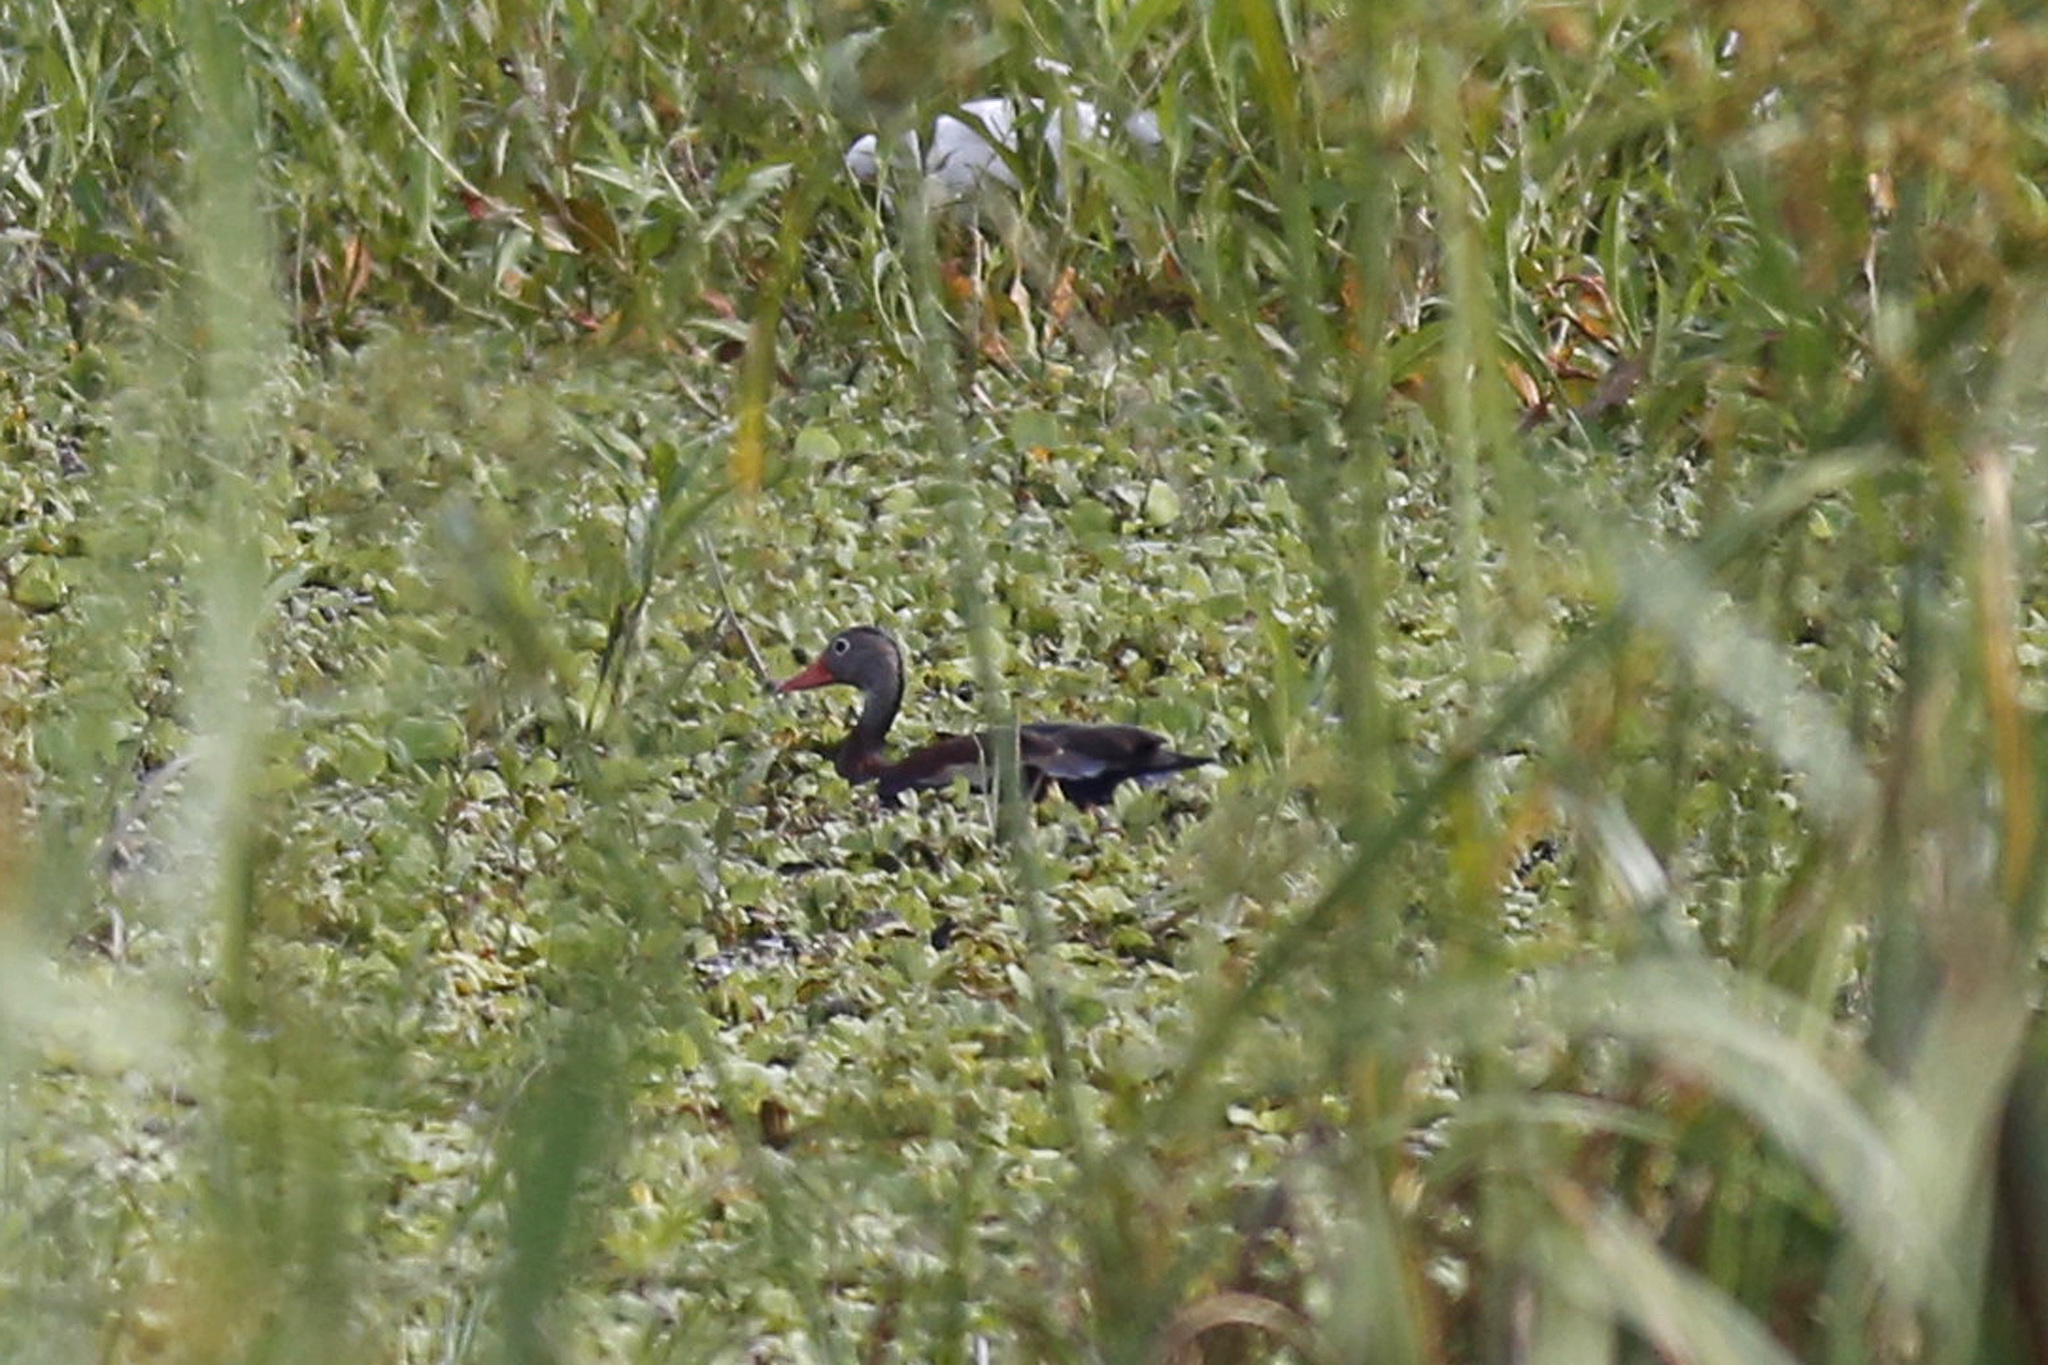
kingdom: Animalia
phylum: Chordata
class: Aves
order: Anseriformes
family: Anatidae
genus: Dendrocygna
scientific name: Dendrocygna autumnalis
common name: Black-bellied whistling duck
